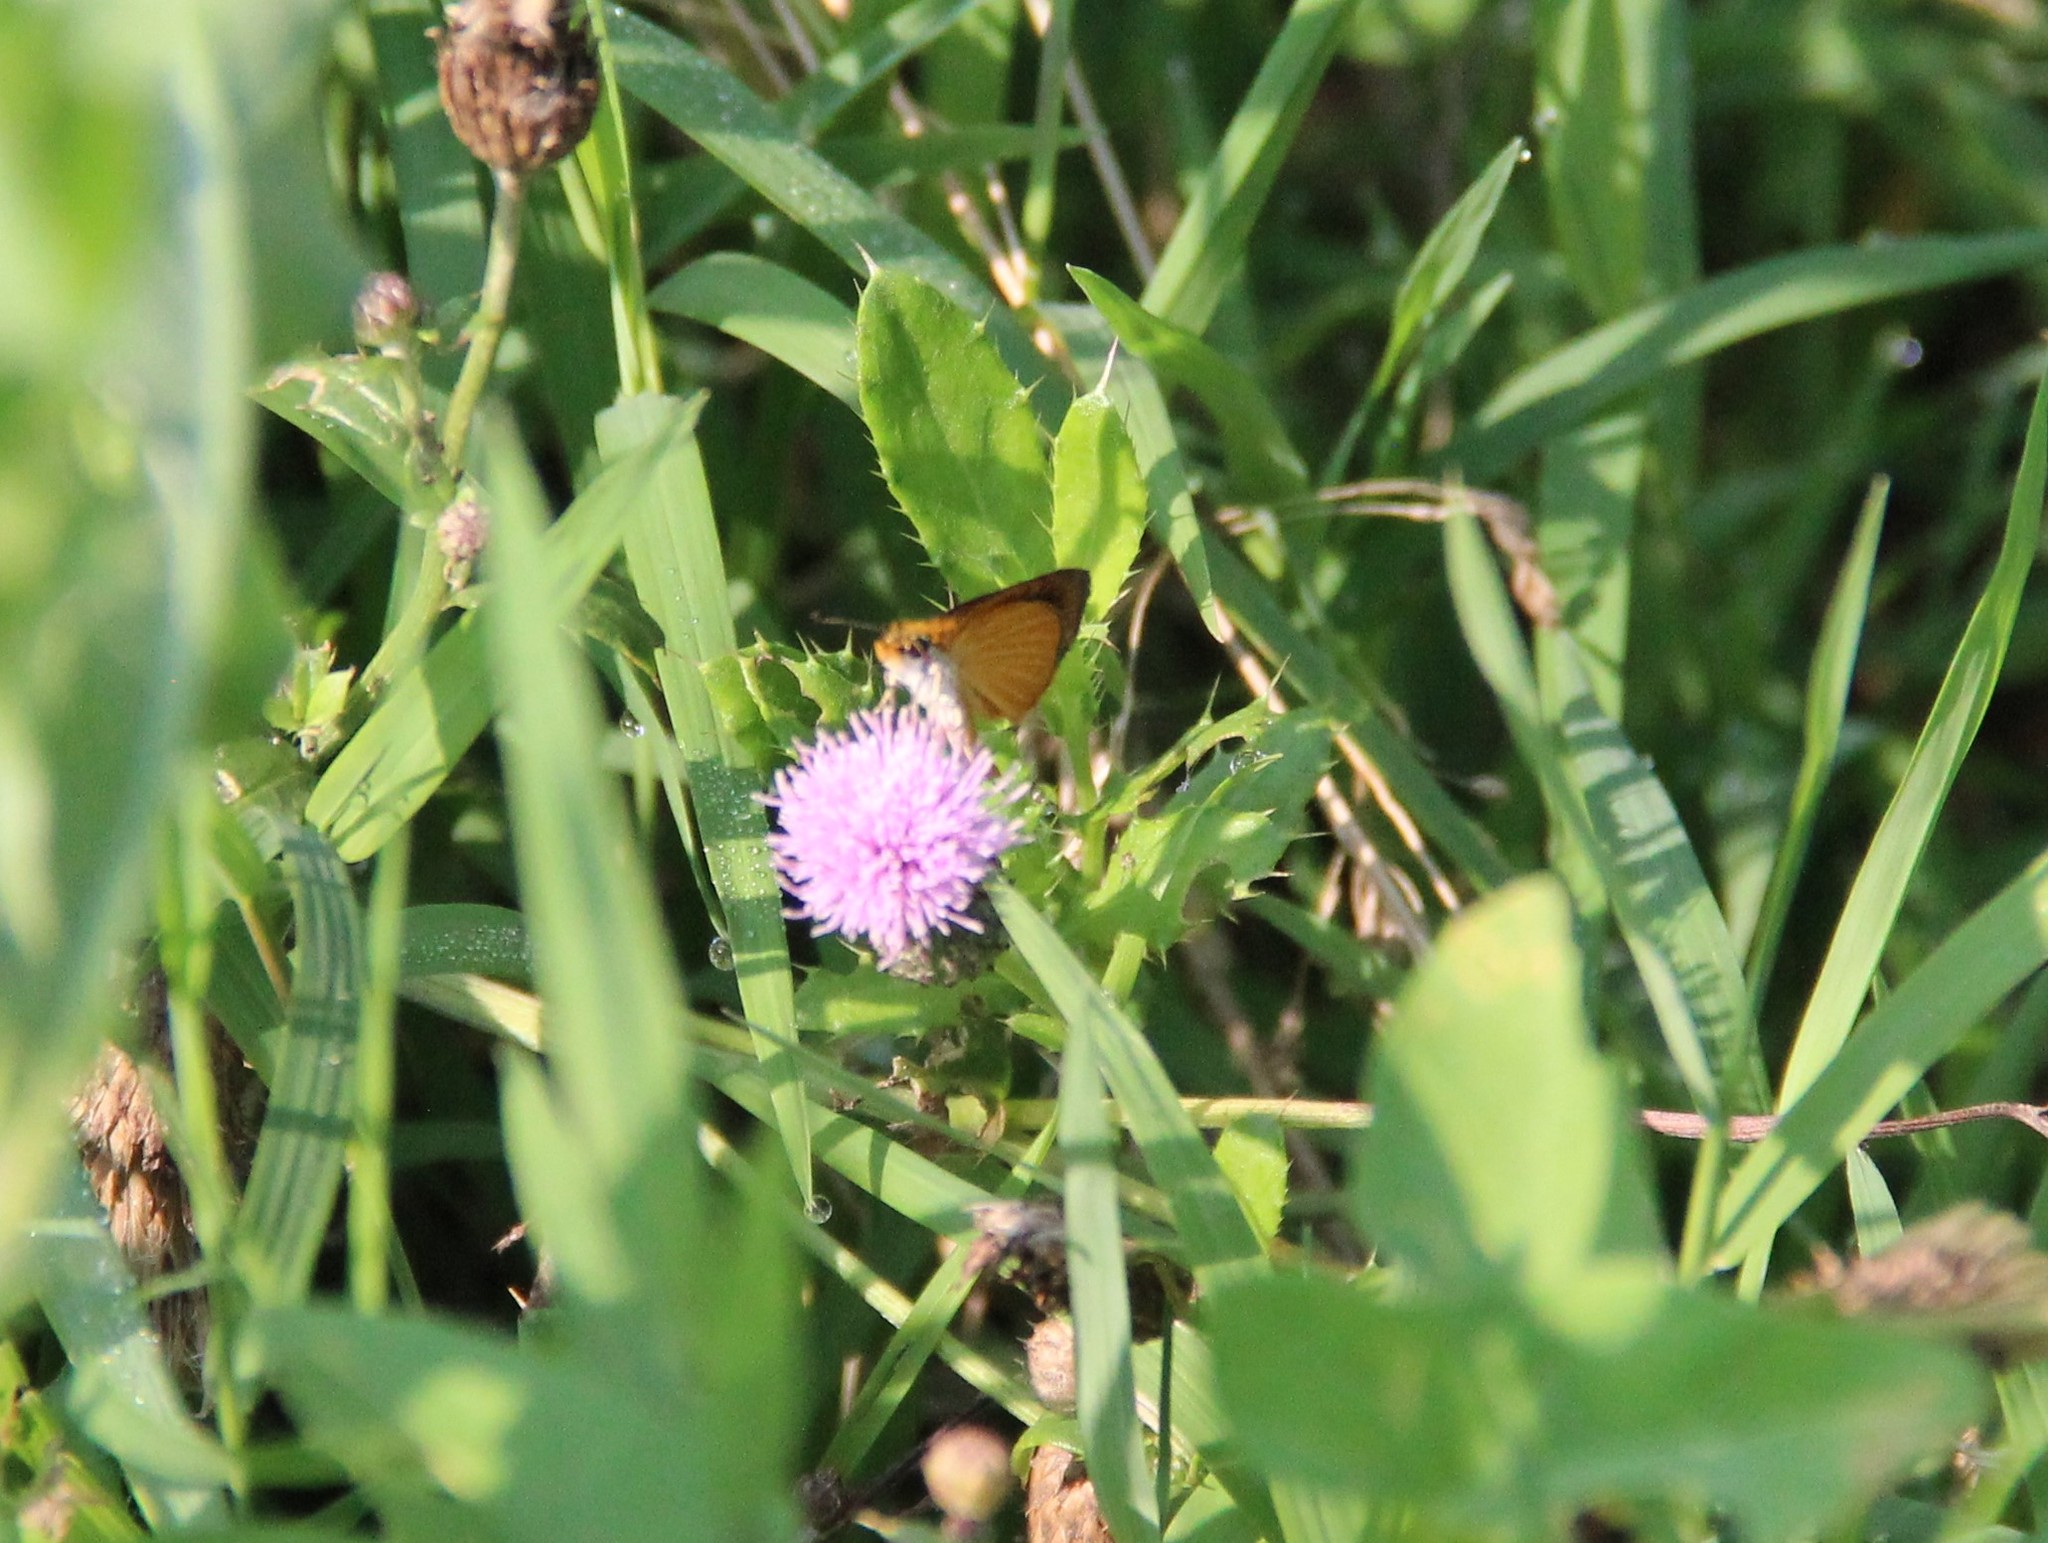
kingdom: Animalia
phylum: Arthropoda
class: Insecta
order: Lepidoptera
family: Hesperiidae
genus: Ancyloxypha
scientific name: Ancyloxypha numitor
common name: Least skipper
